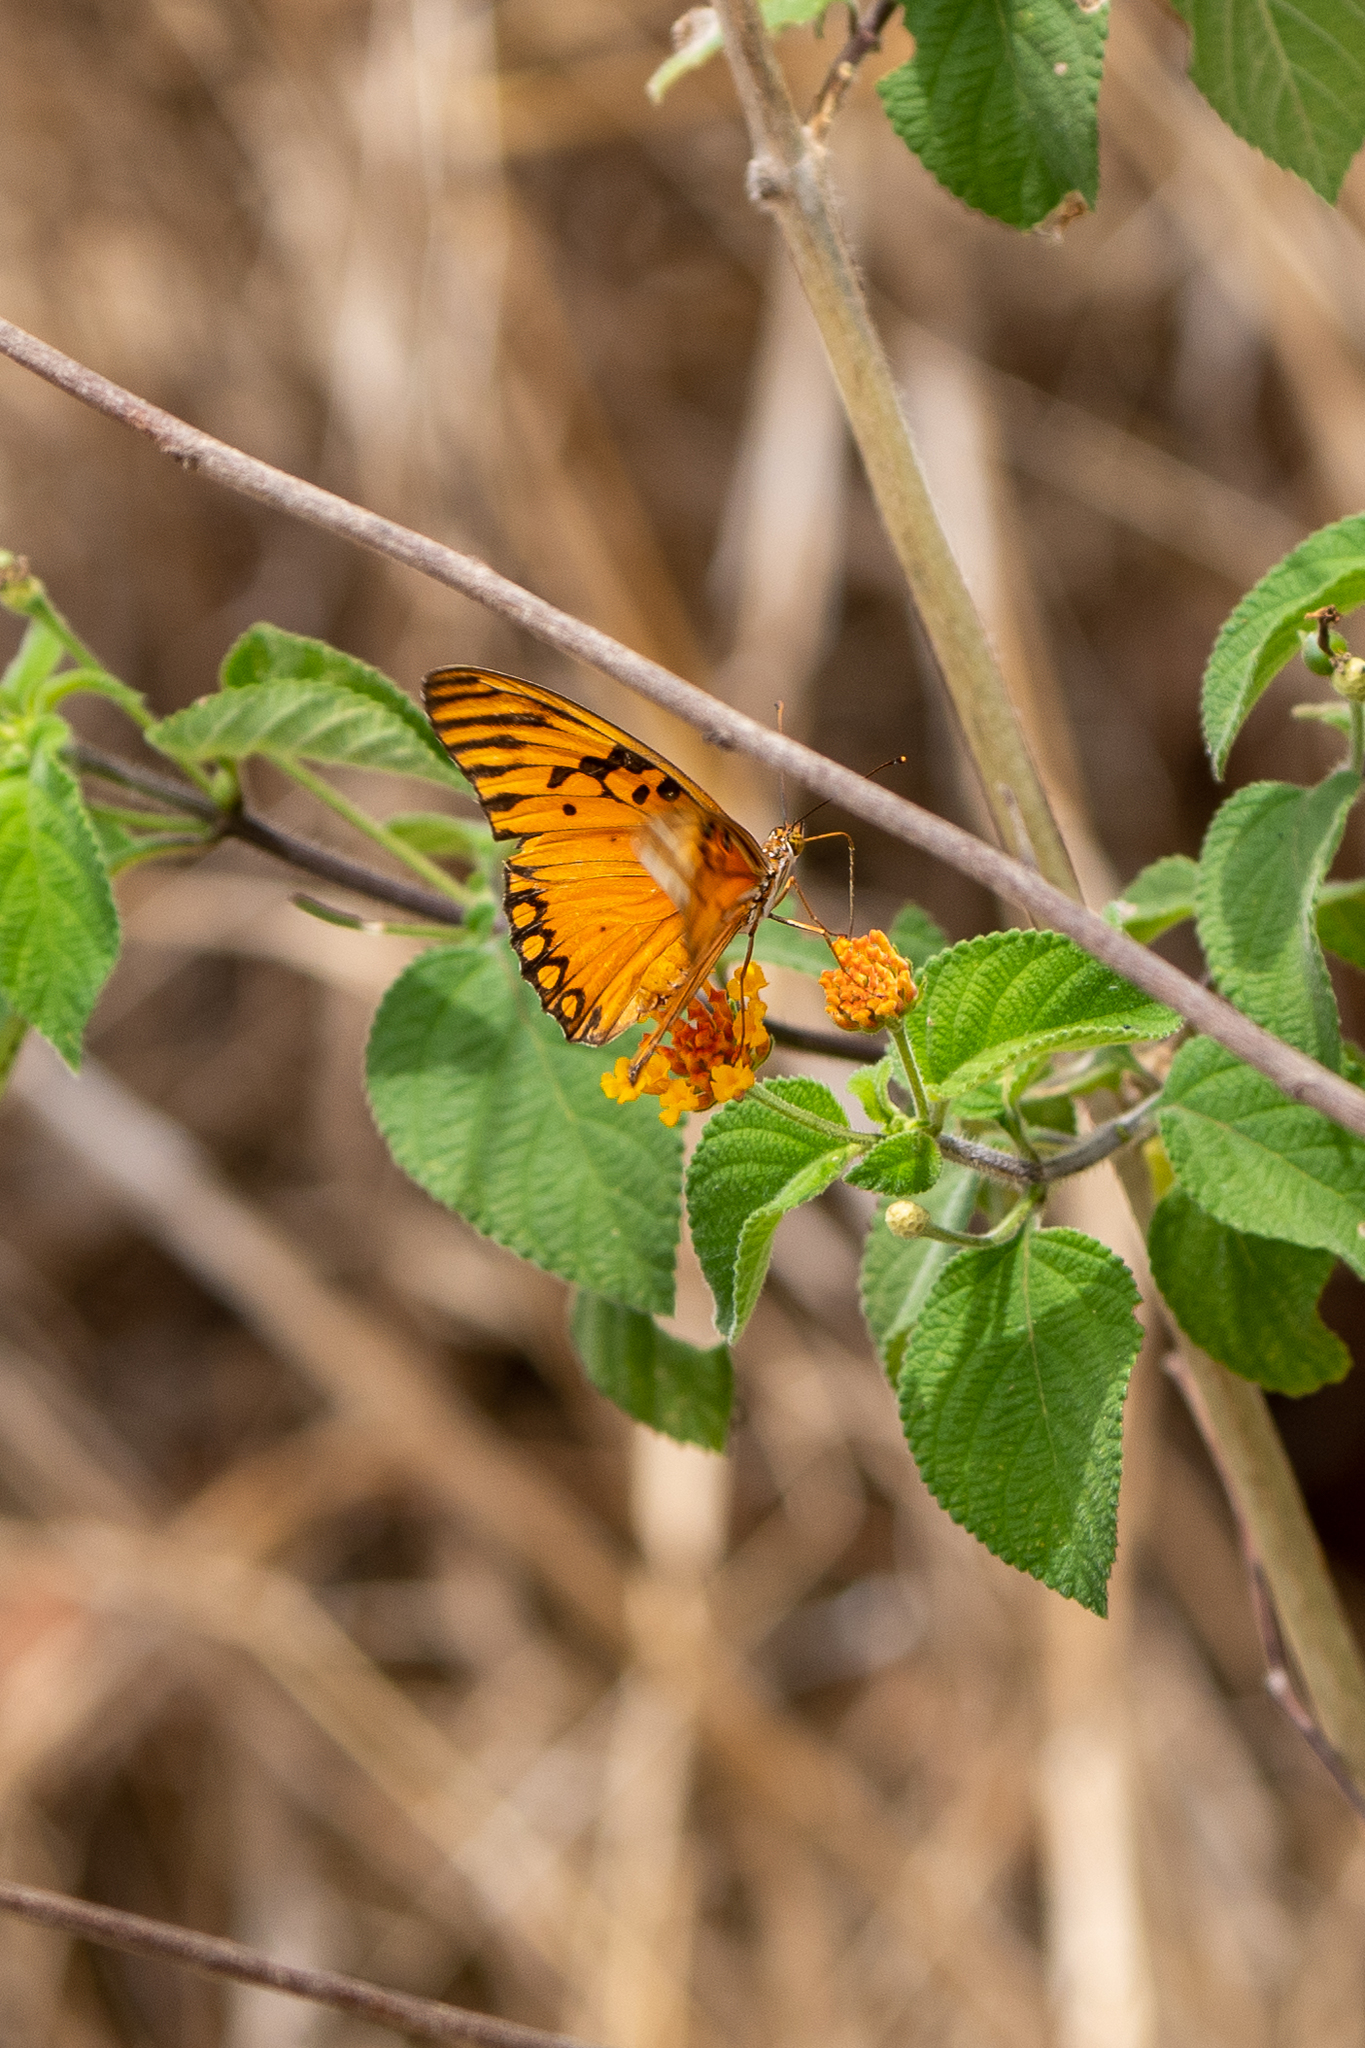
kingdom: Animalia
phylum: Arthropoda
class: Insecta
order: Lepidoptera
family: Nymphalidae
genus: Dione
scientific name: Dione vanillae
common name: Gulf fritillary
